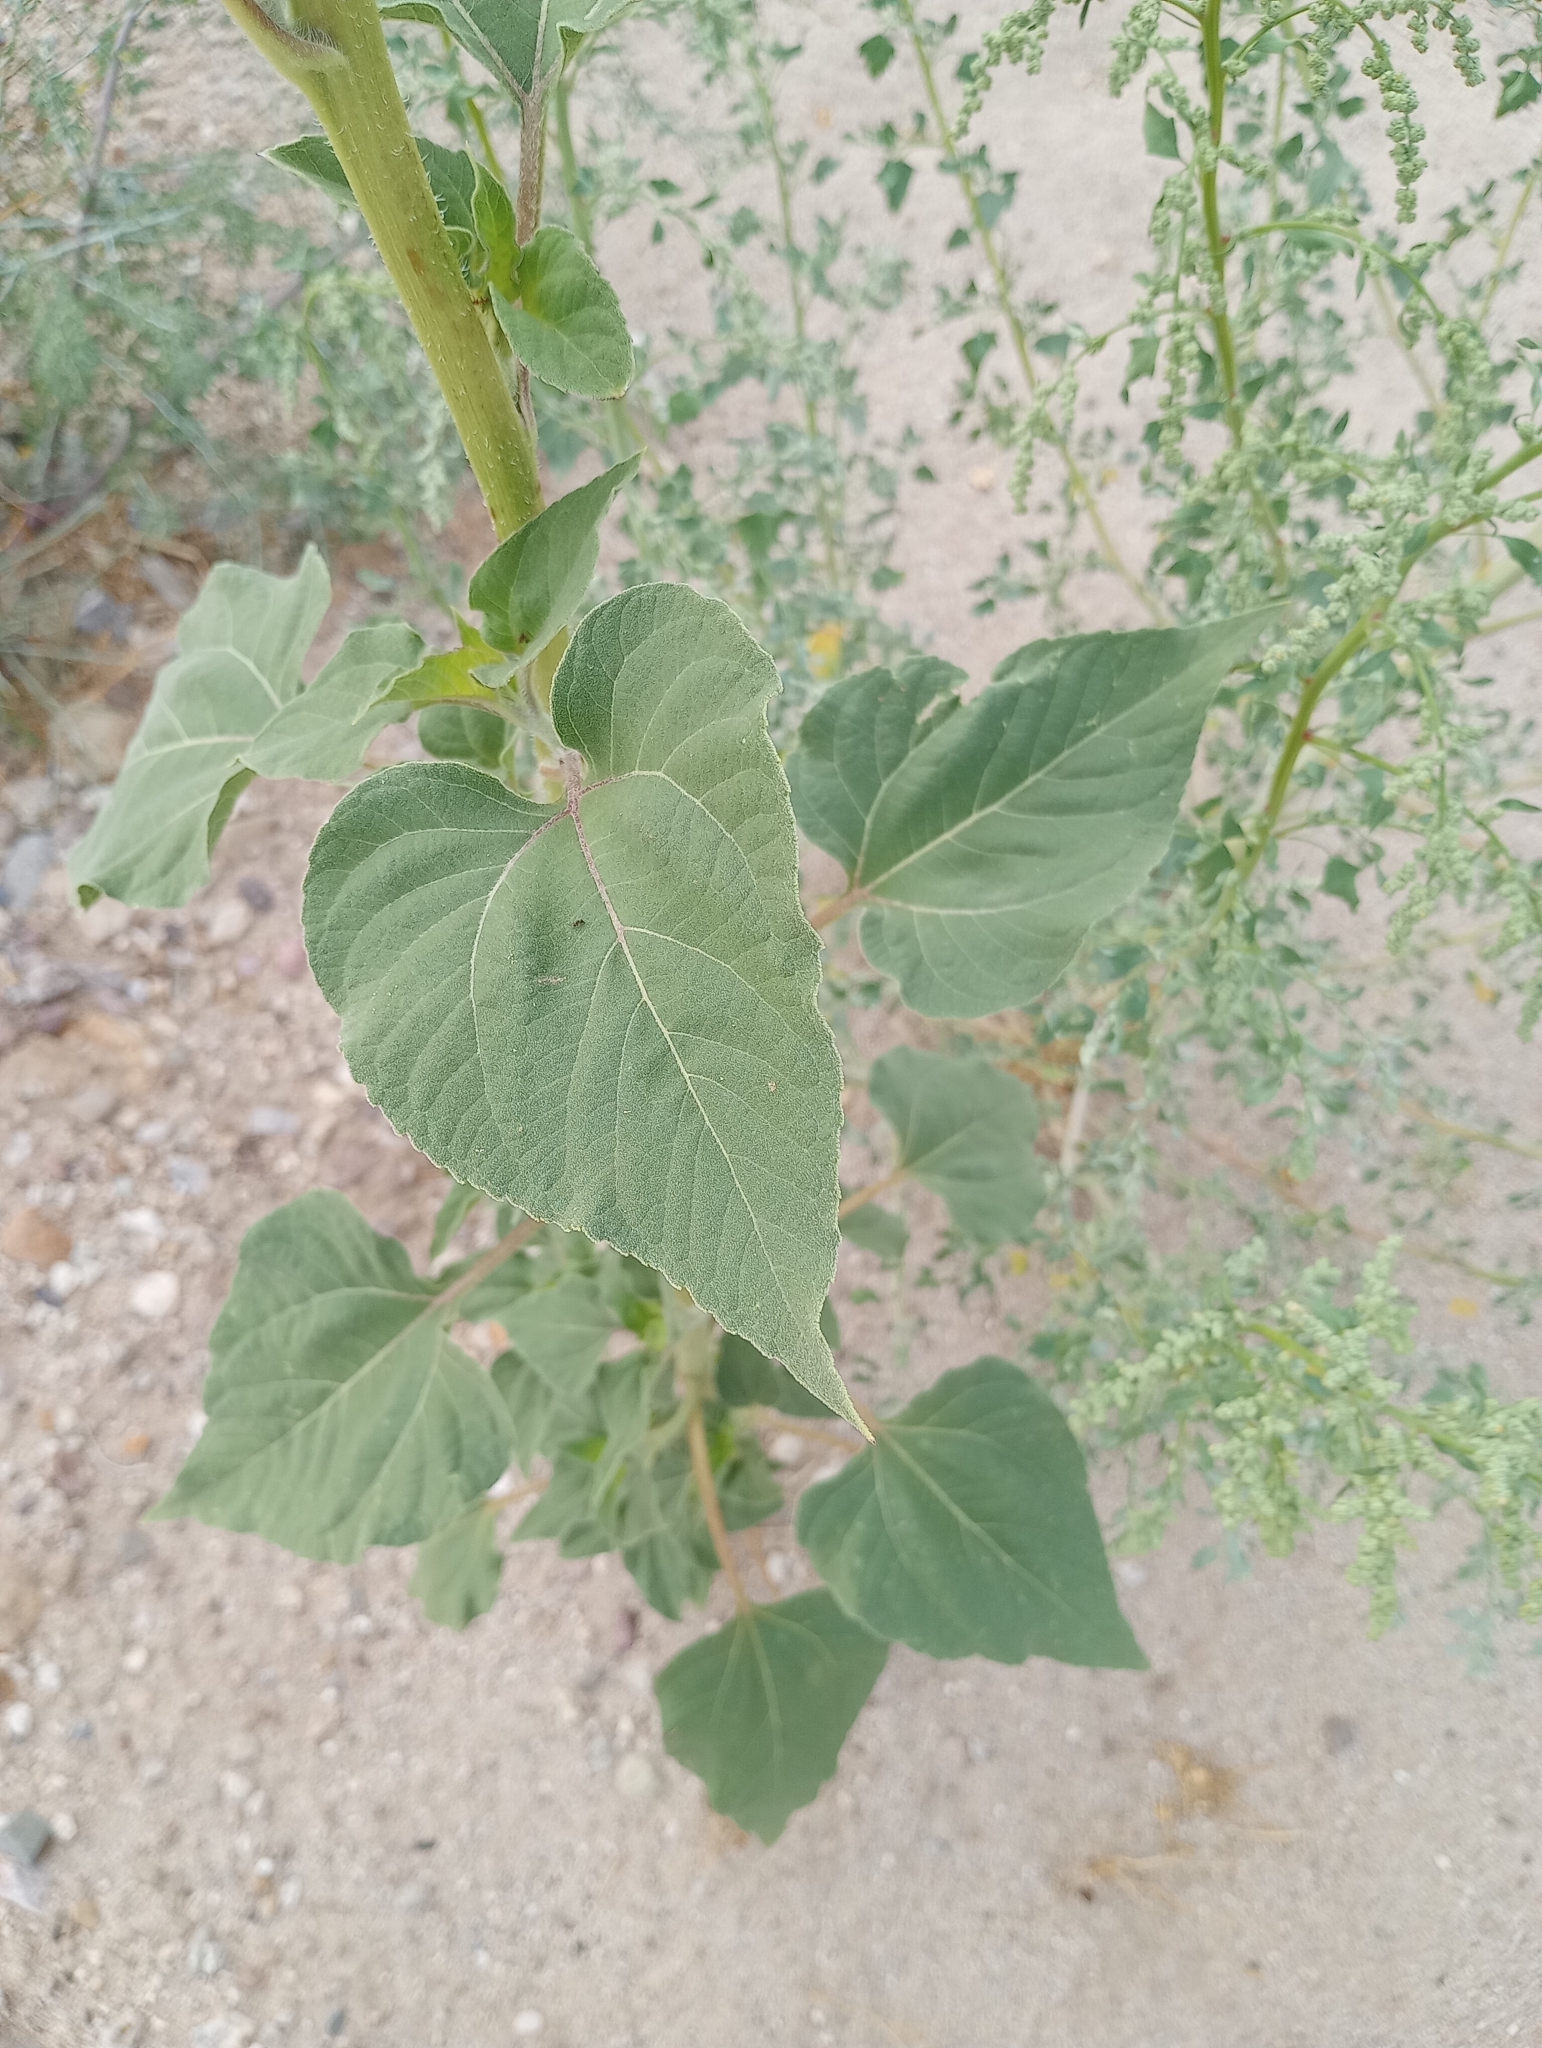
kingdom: Plantae
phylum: Tracheophyta
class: Magnoliopsida
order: Asterales
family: Asteraceae
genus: Helianthus
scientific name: Helianthus annuus
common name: Sunflower
